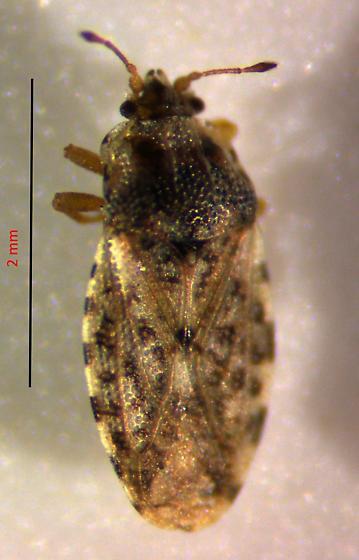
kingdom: Animalia
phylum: Arthropoda
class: Insecta
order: Hemiptera
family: Piesmatidae
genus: Parapiesma
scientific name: Parapiesma cinereum
